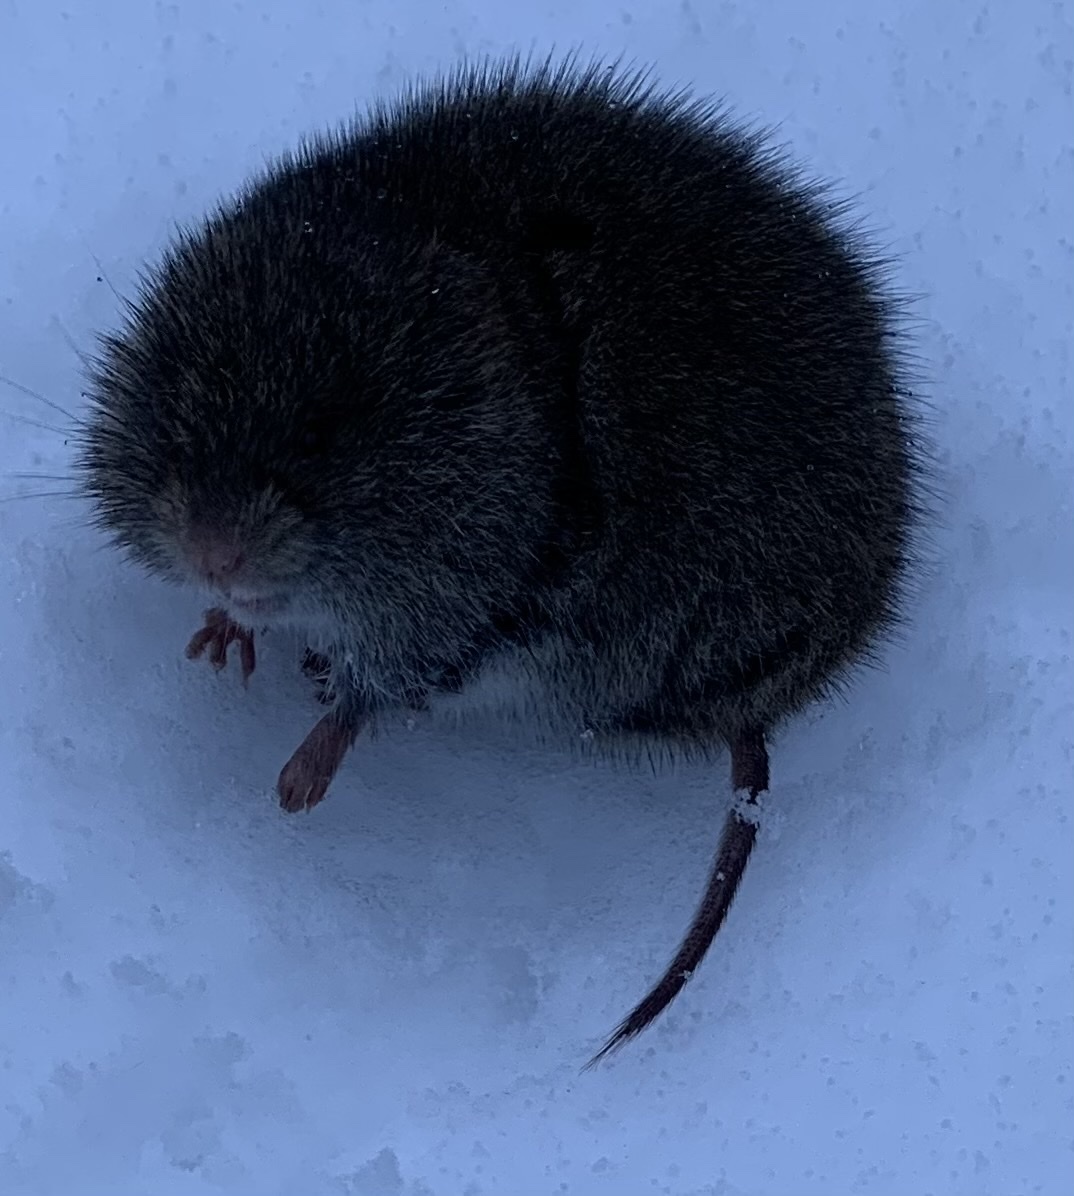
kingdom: Animalia
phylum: Chordata
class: Mammalia
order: Rodentia
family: Cricetidae
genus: Microtus
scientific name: Microtus pennsylvanicus
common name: Meadow vole
